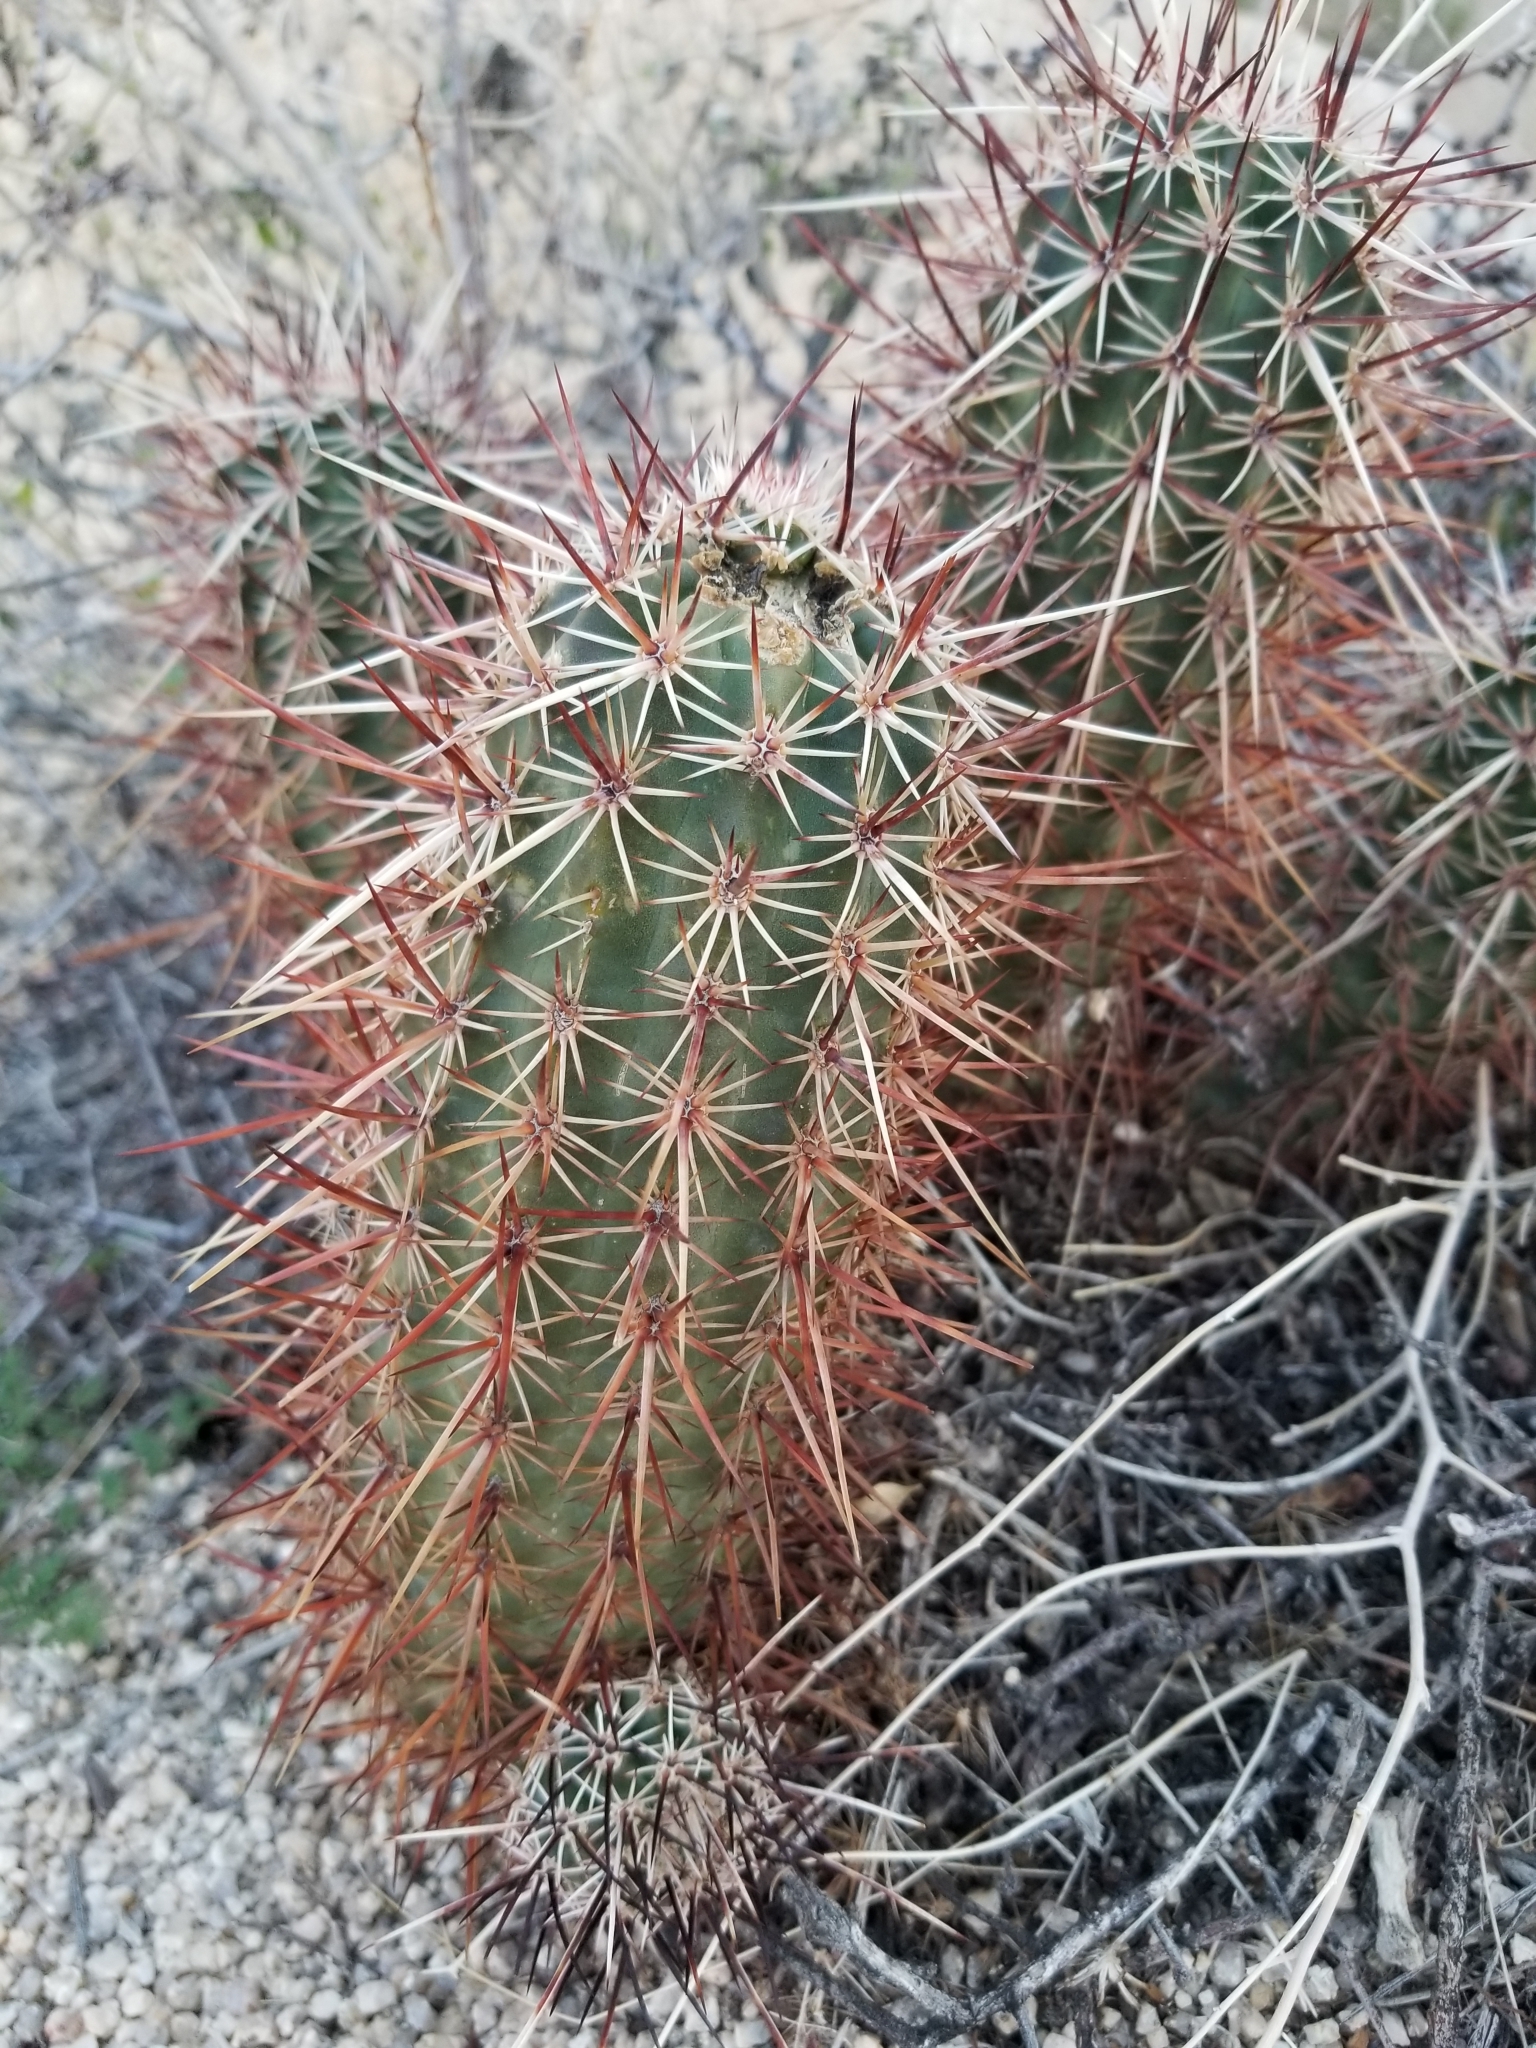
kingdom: Plantae
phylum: Tracheophyta
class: Magnoliopsida
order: Caryophyllales
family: Cactaceae
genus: Echinocereus
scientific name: Echinocereus engelmannii
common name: Engelmann's hedgehog cactus
